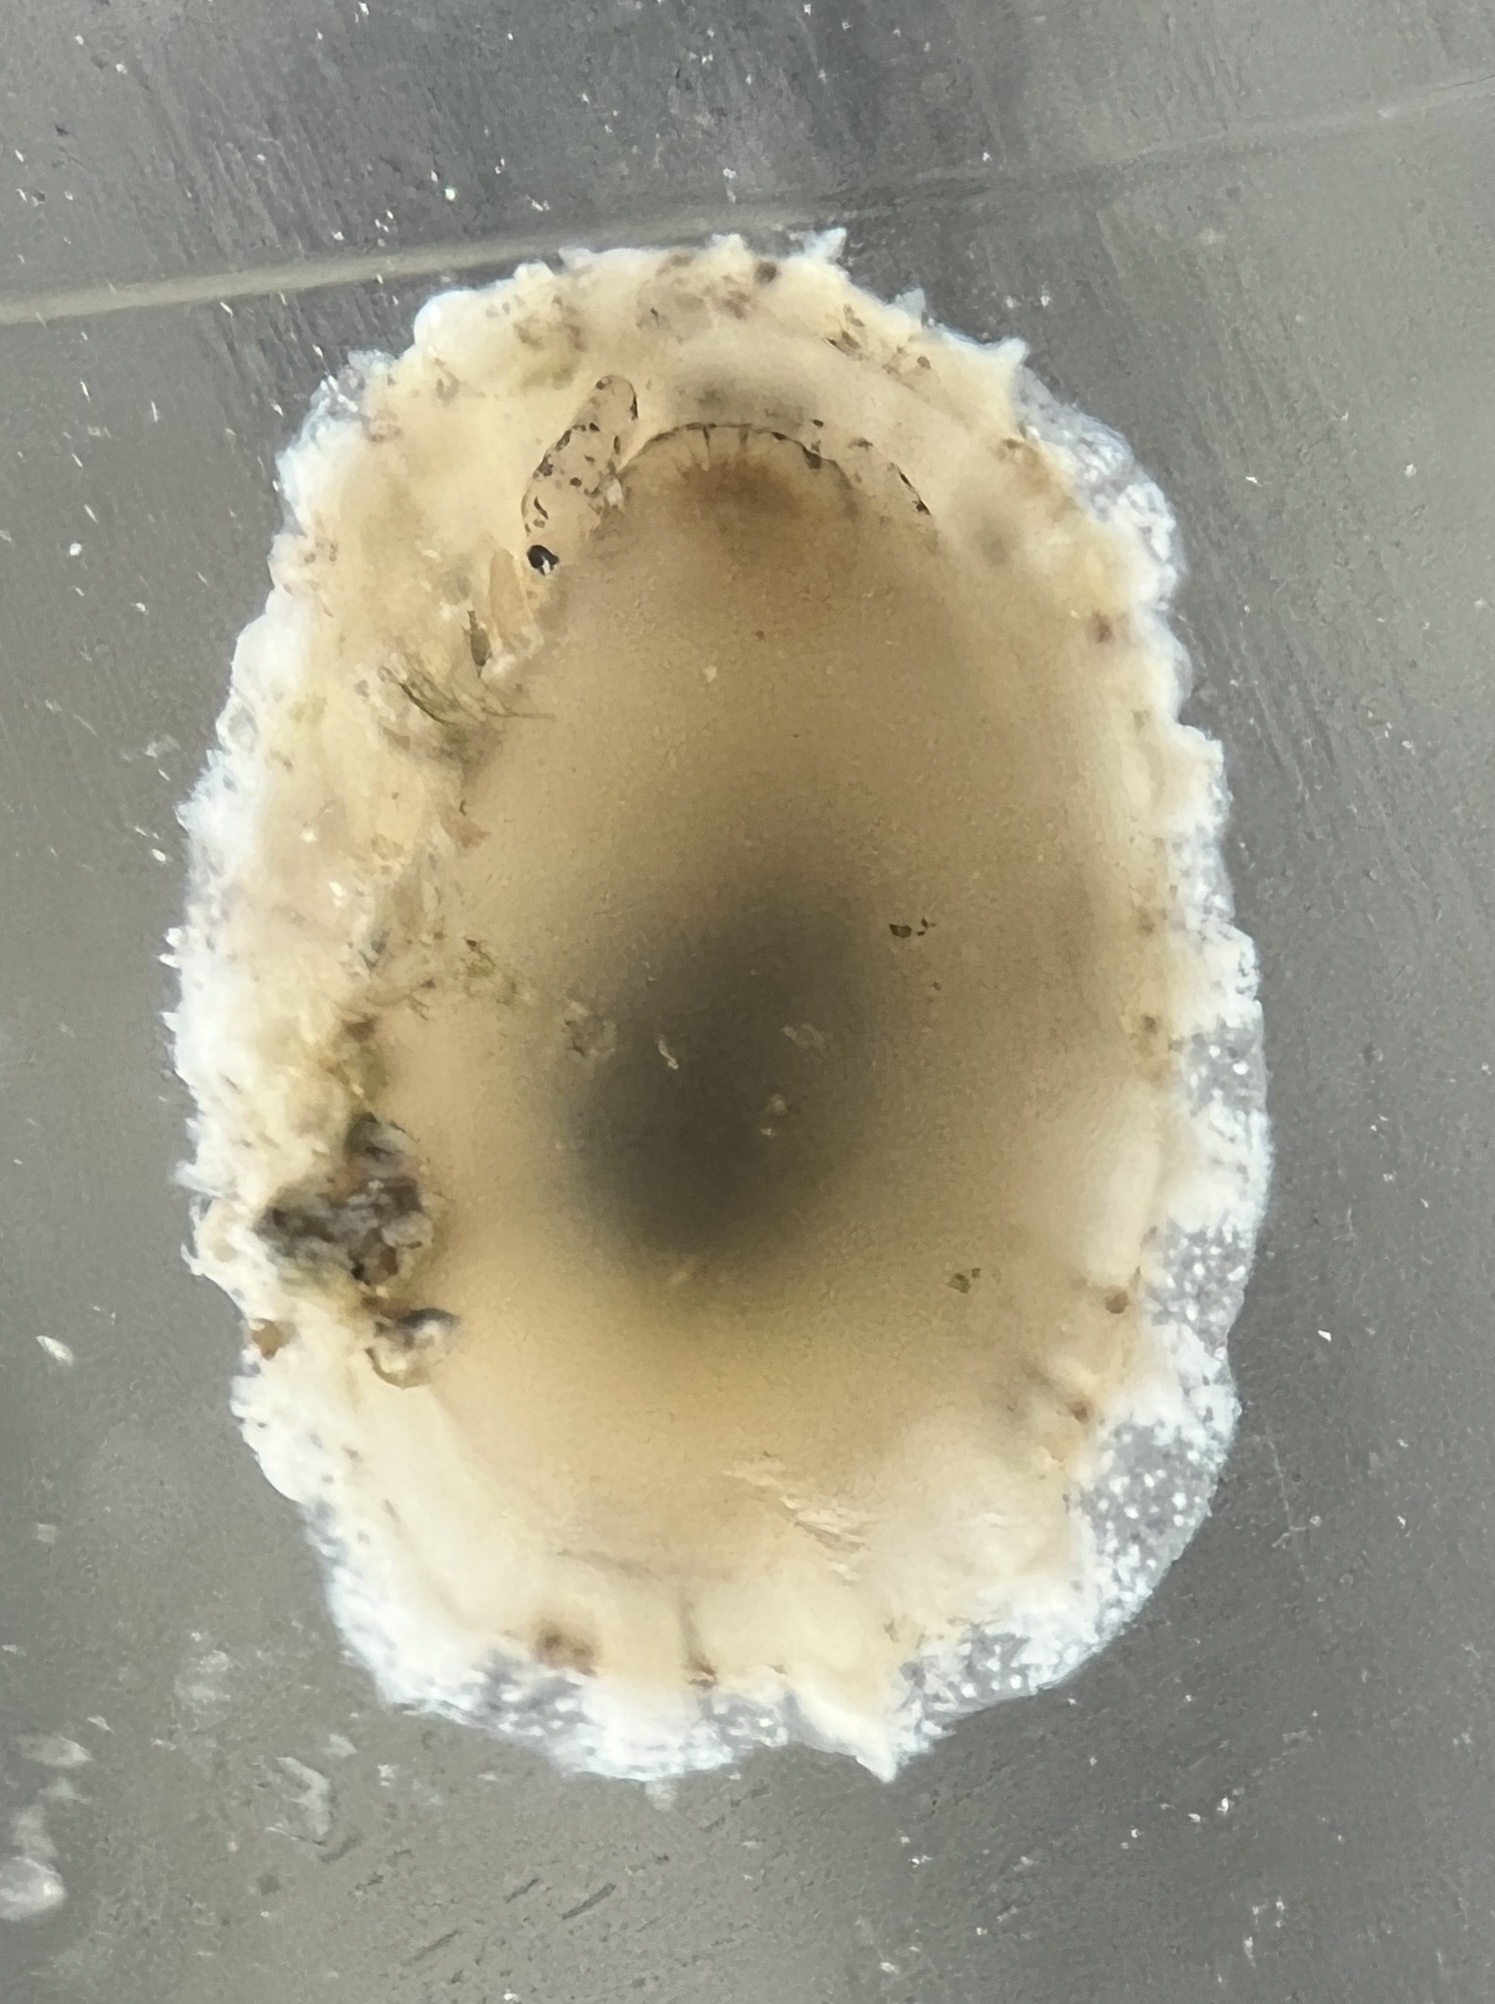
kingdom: Animalia
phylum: Mollusca
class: Gastropoda
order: Lepetellida
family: Fissurellidae
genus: Diodora
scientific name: Diodora dysoni
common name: Dyson's keyhole limpet
